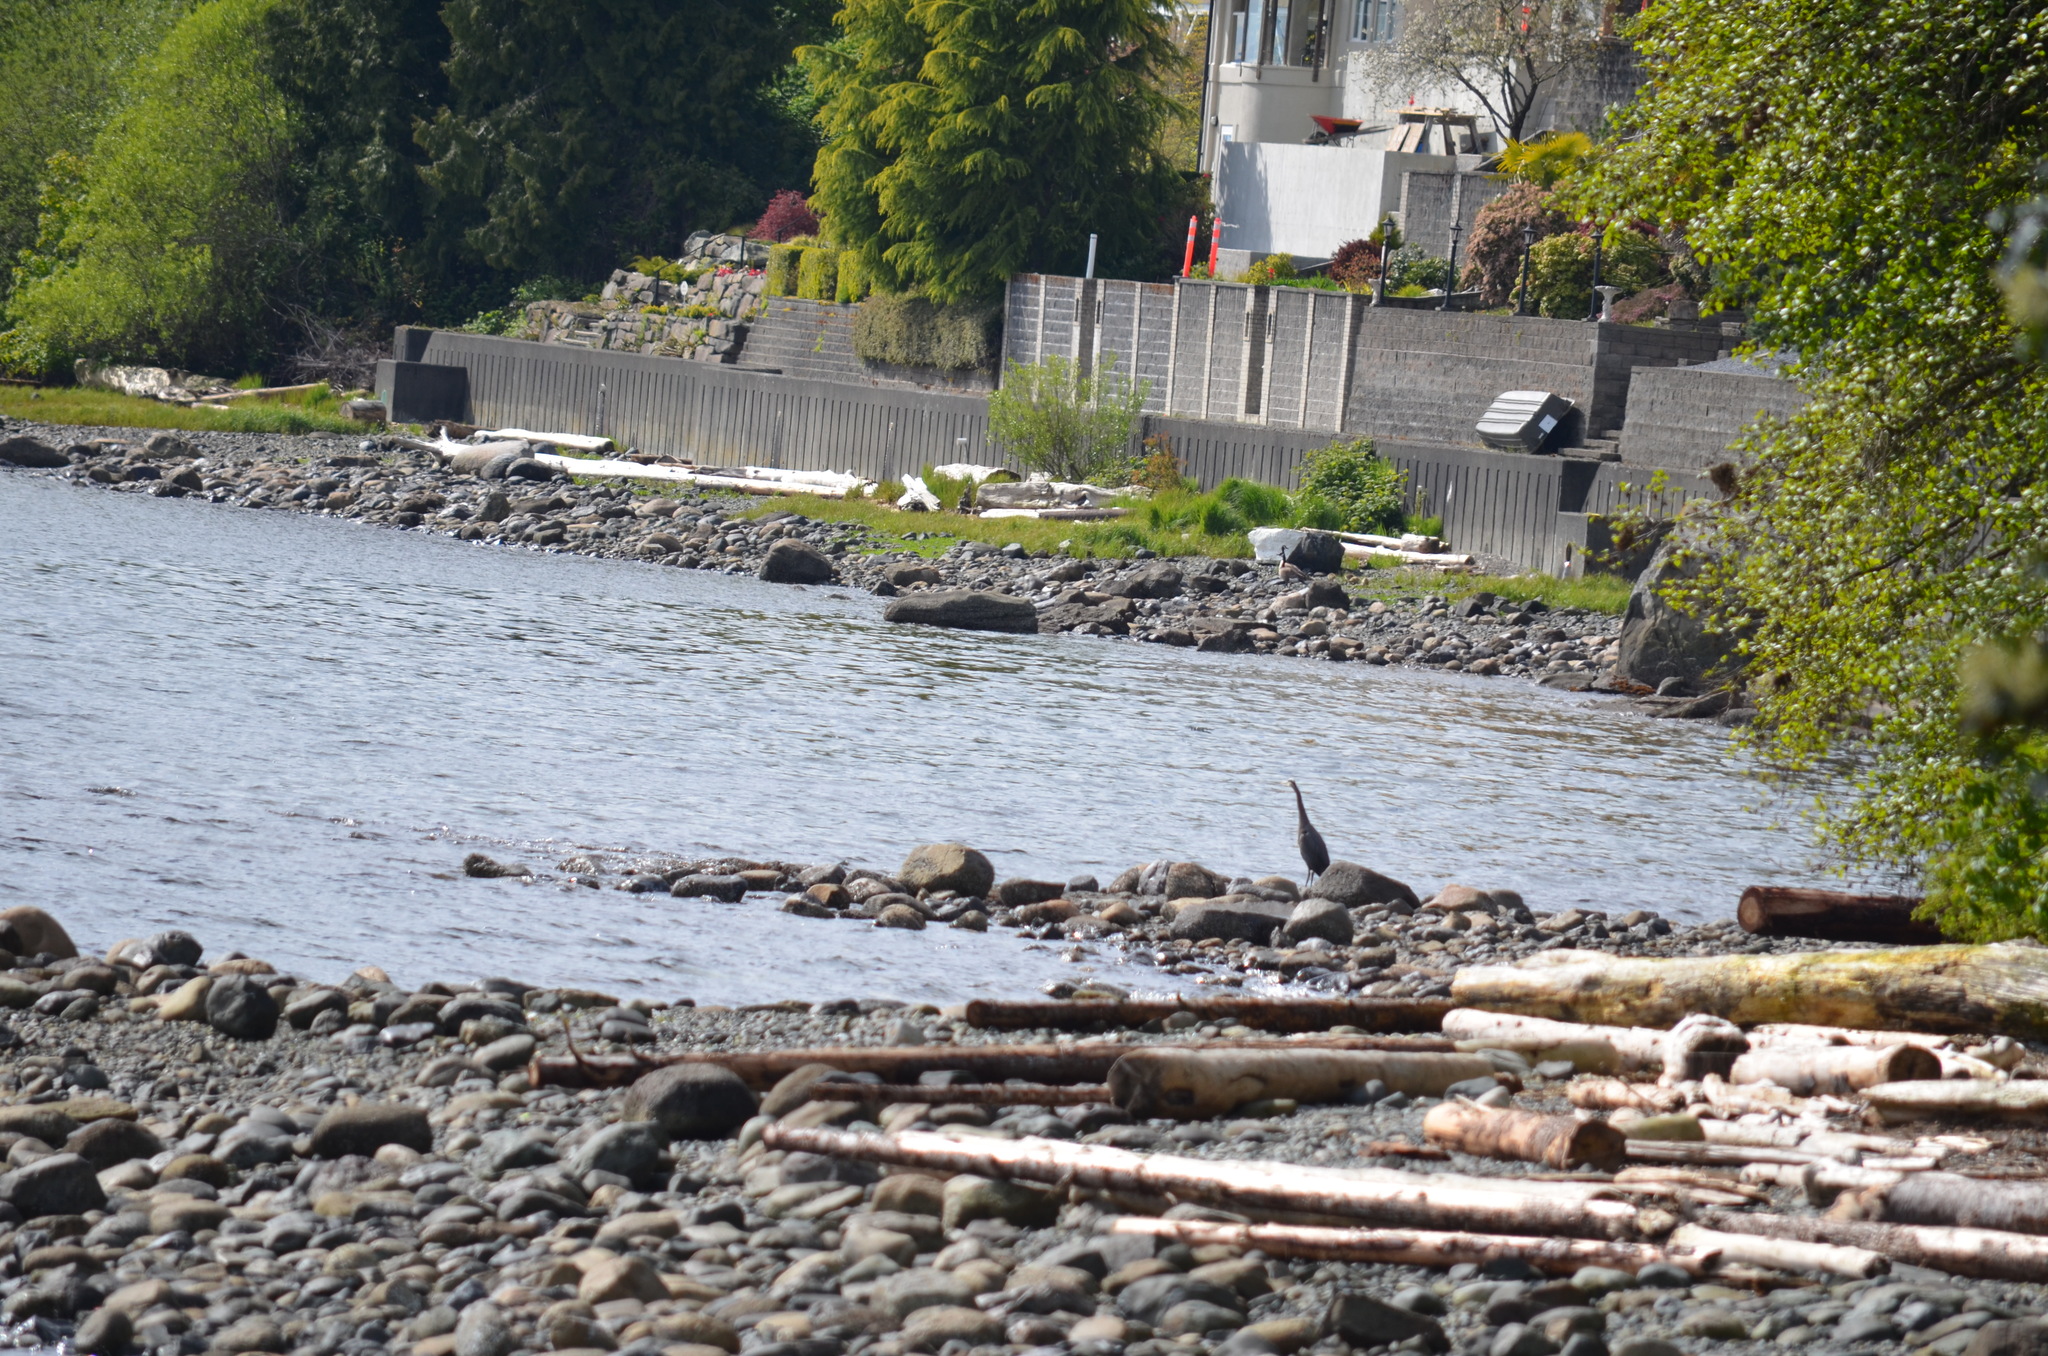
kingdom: Animalia
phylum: Chordata
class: Aves
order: Anseriformes
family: Anatidae
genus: Branta
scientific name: Branta canadensis
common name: Canada goose
